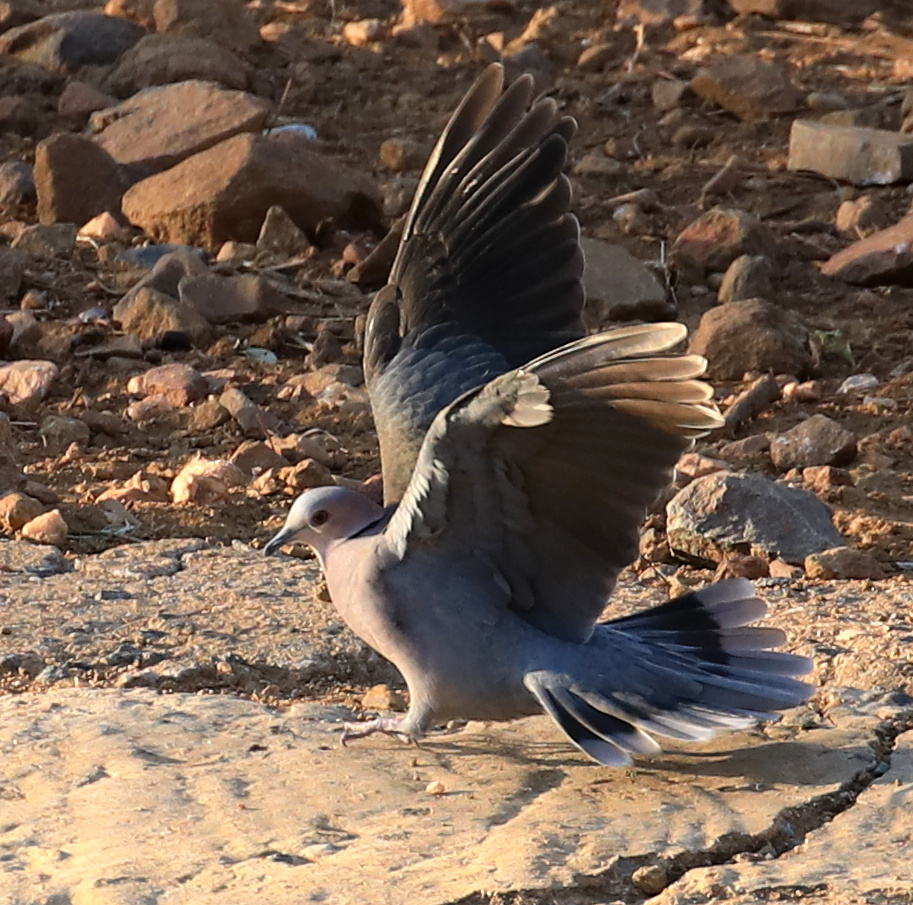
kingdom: Animalia
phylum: Chordata
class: Aves
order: Columbiformes
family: Columbidae
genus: Streptopelia
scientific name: Streptopelia semitorquata
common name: Red-eyed dove
